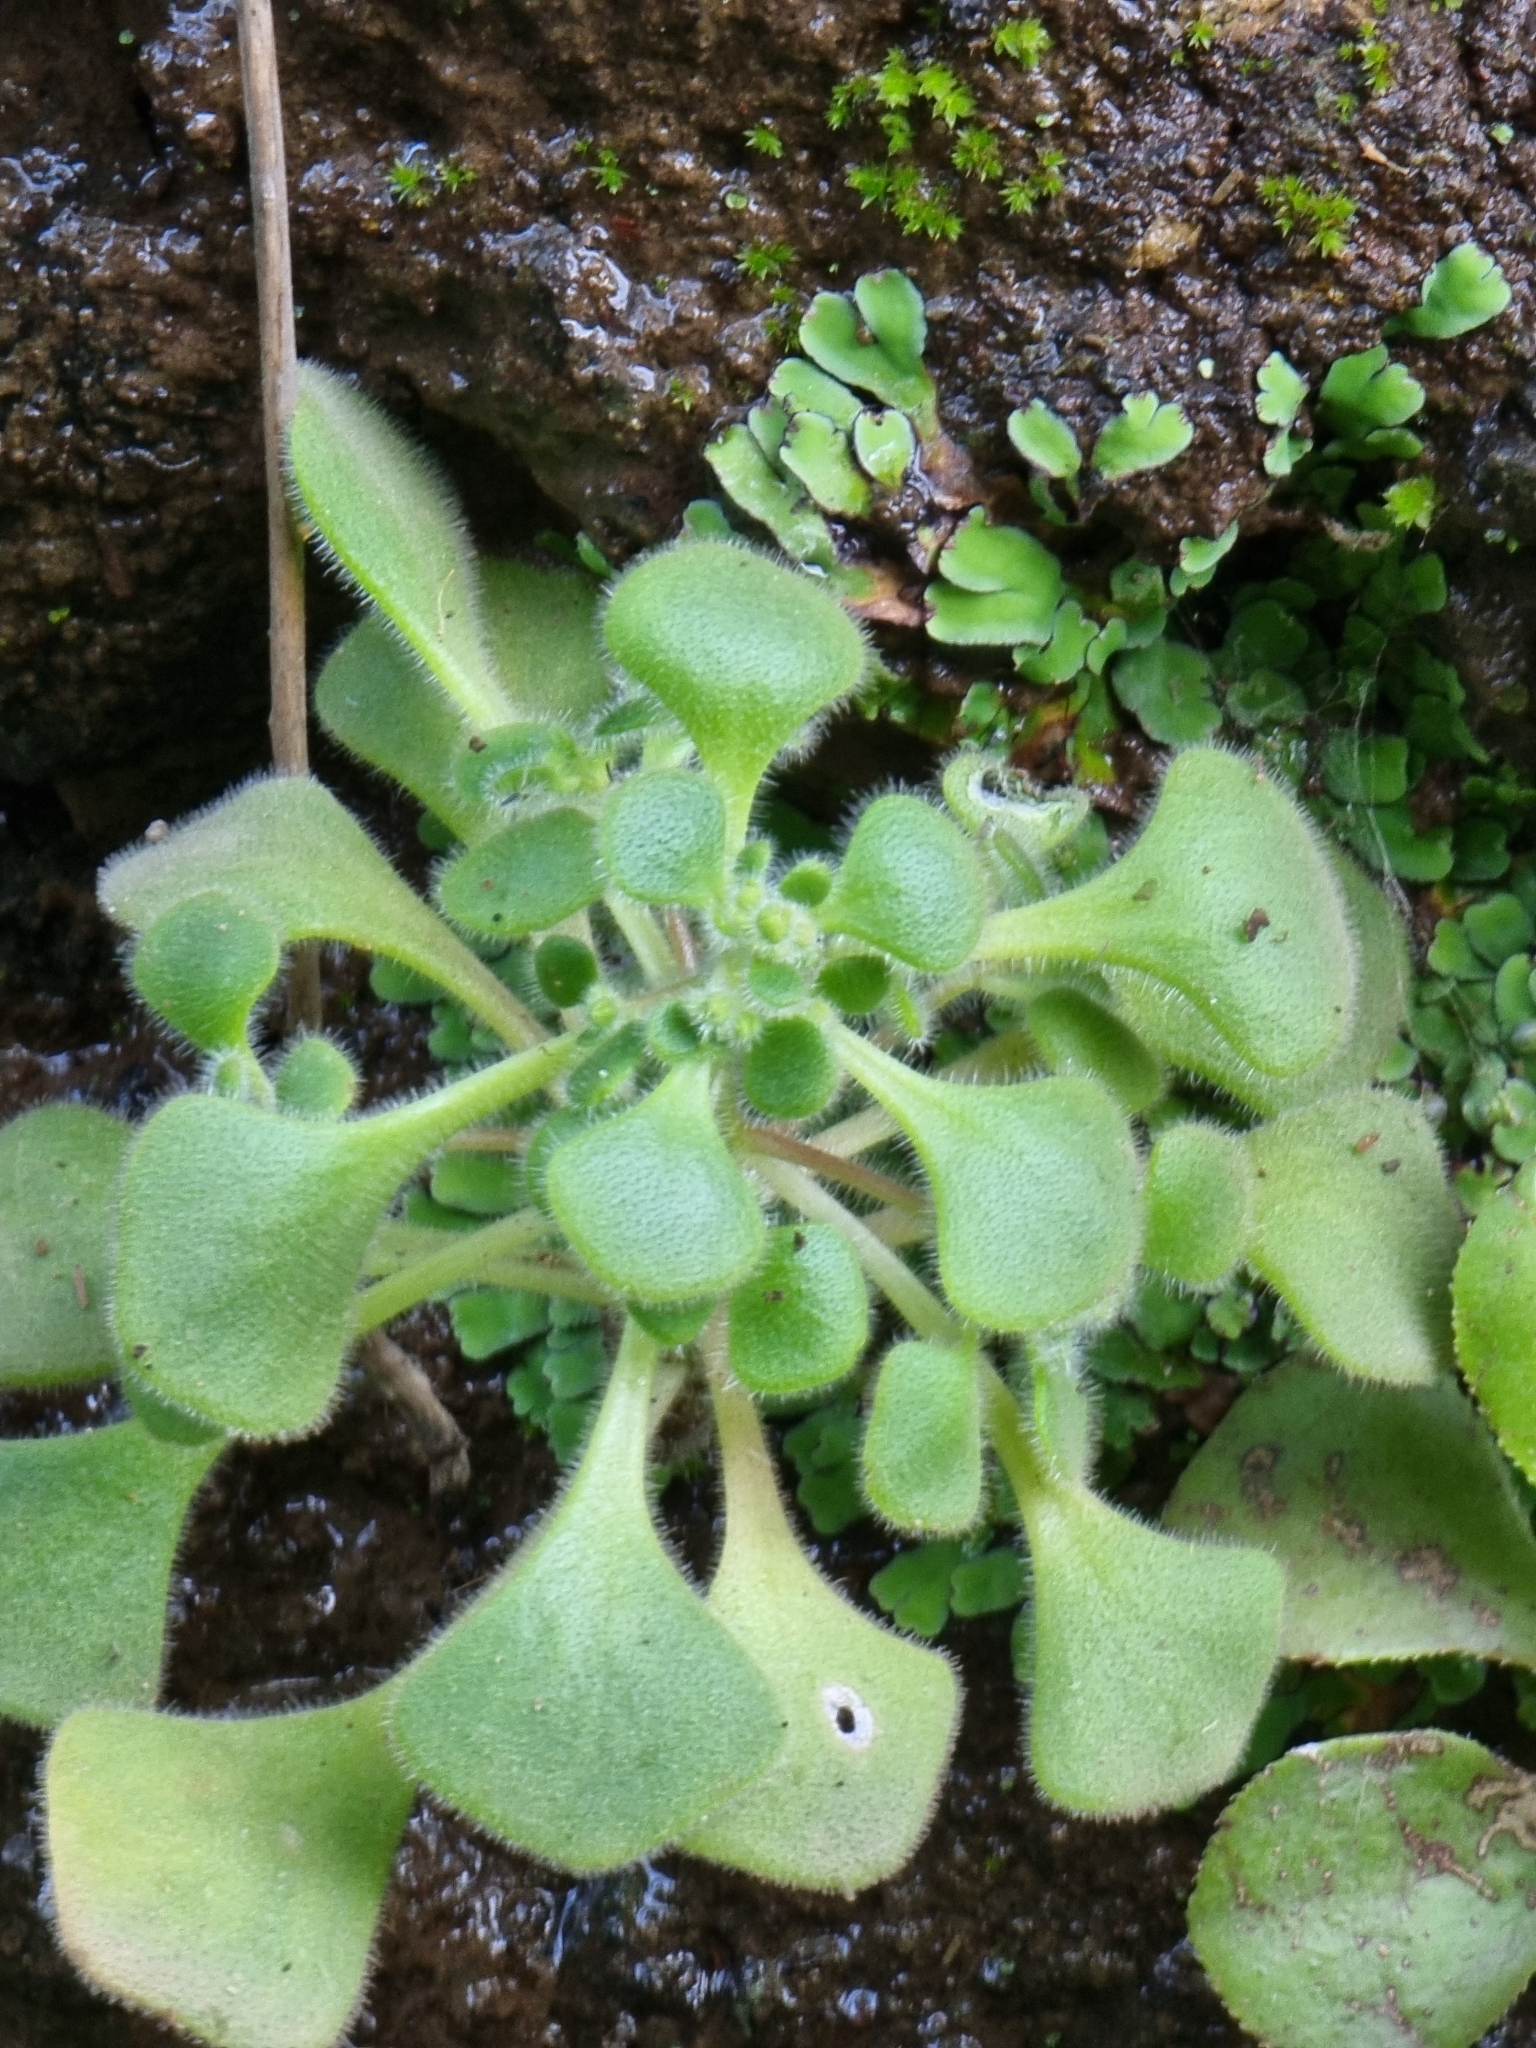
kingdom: Plantae
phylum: Tracheophyta
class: Magnoliopsida
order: Saxifragales
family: Crassulaceae
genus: Aichryson
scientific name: Aichryson villosum
